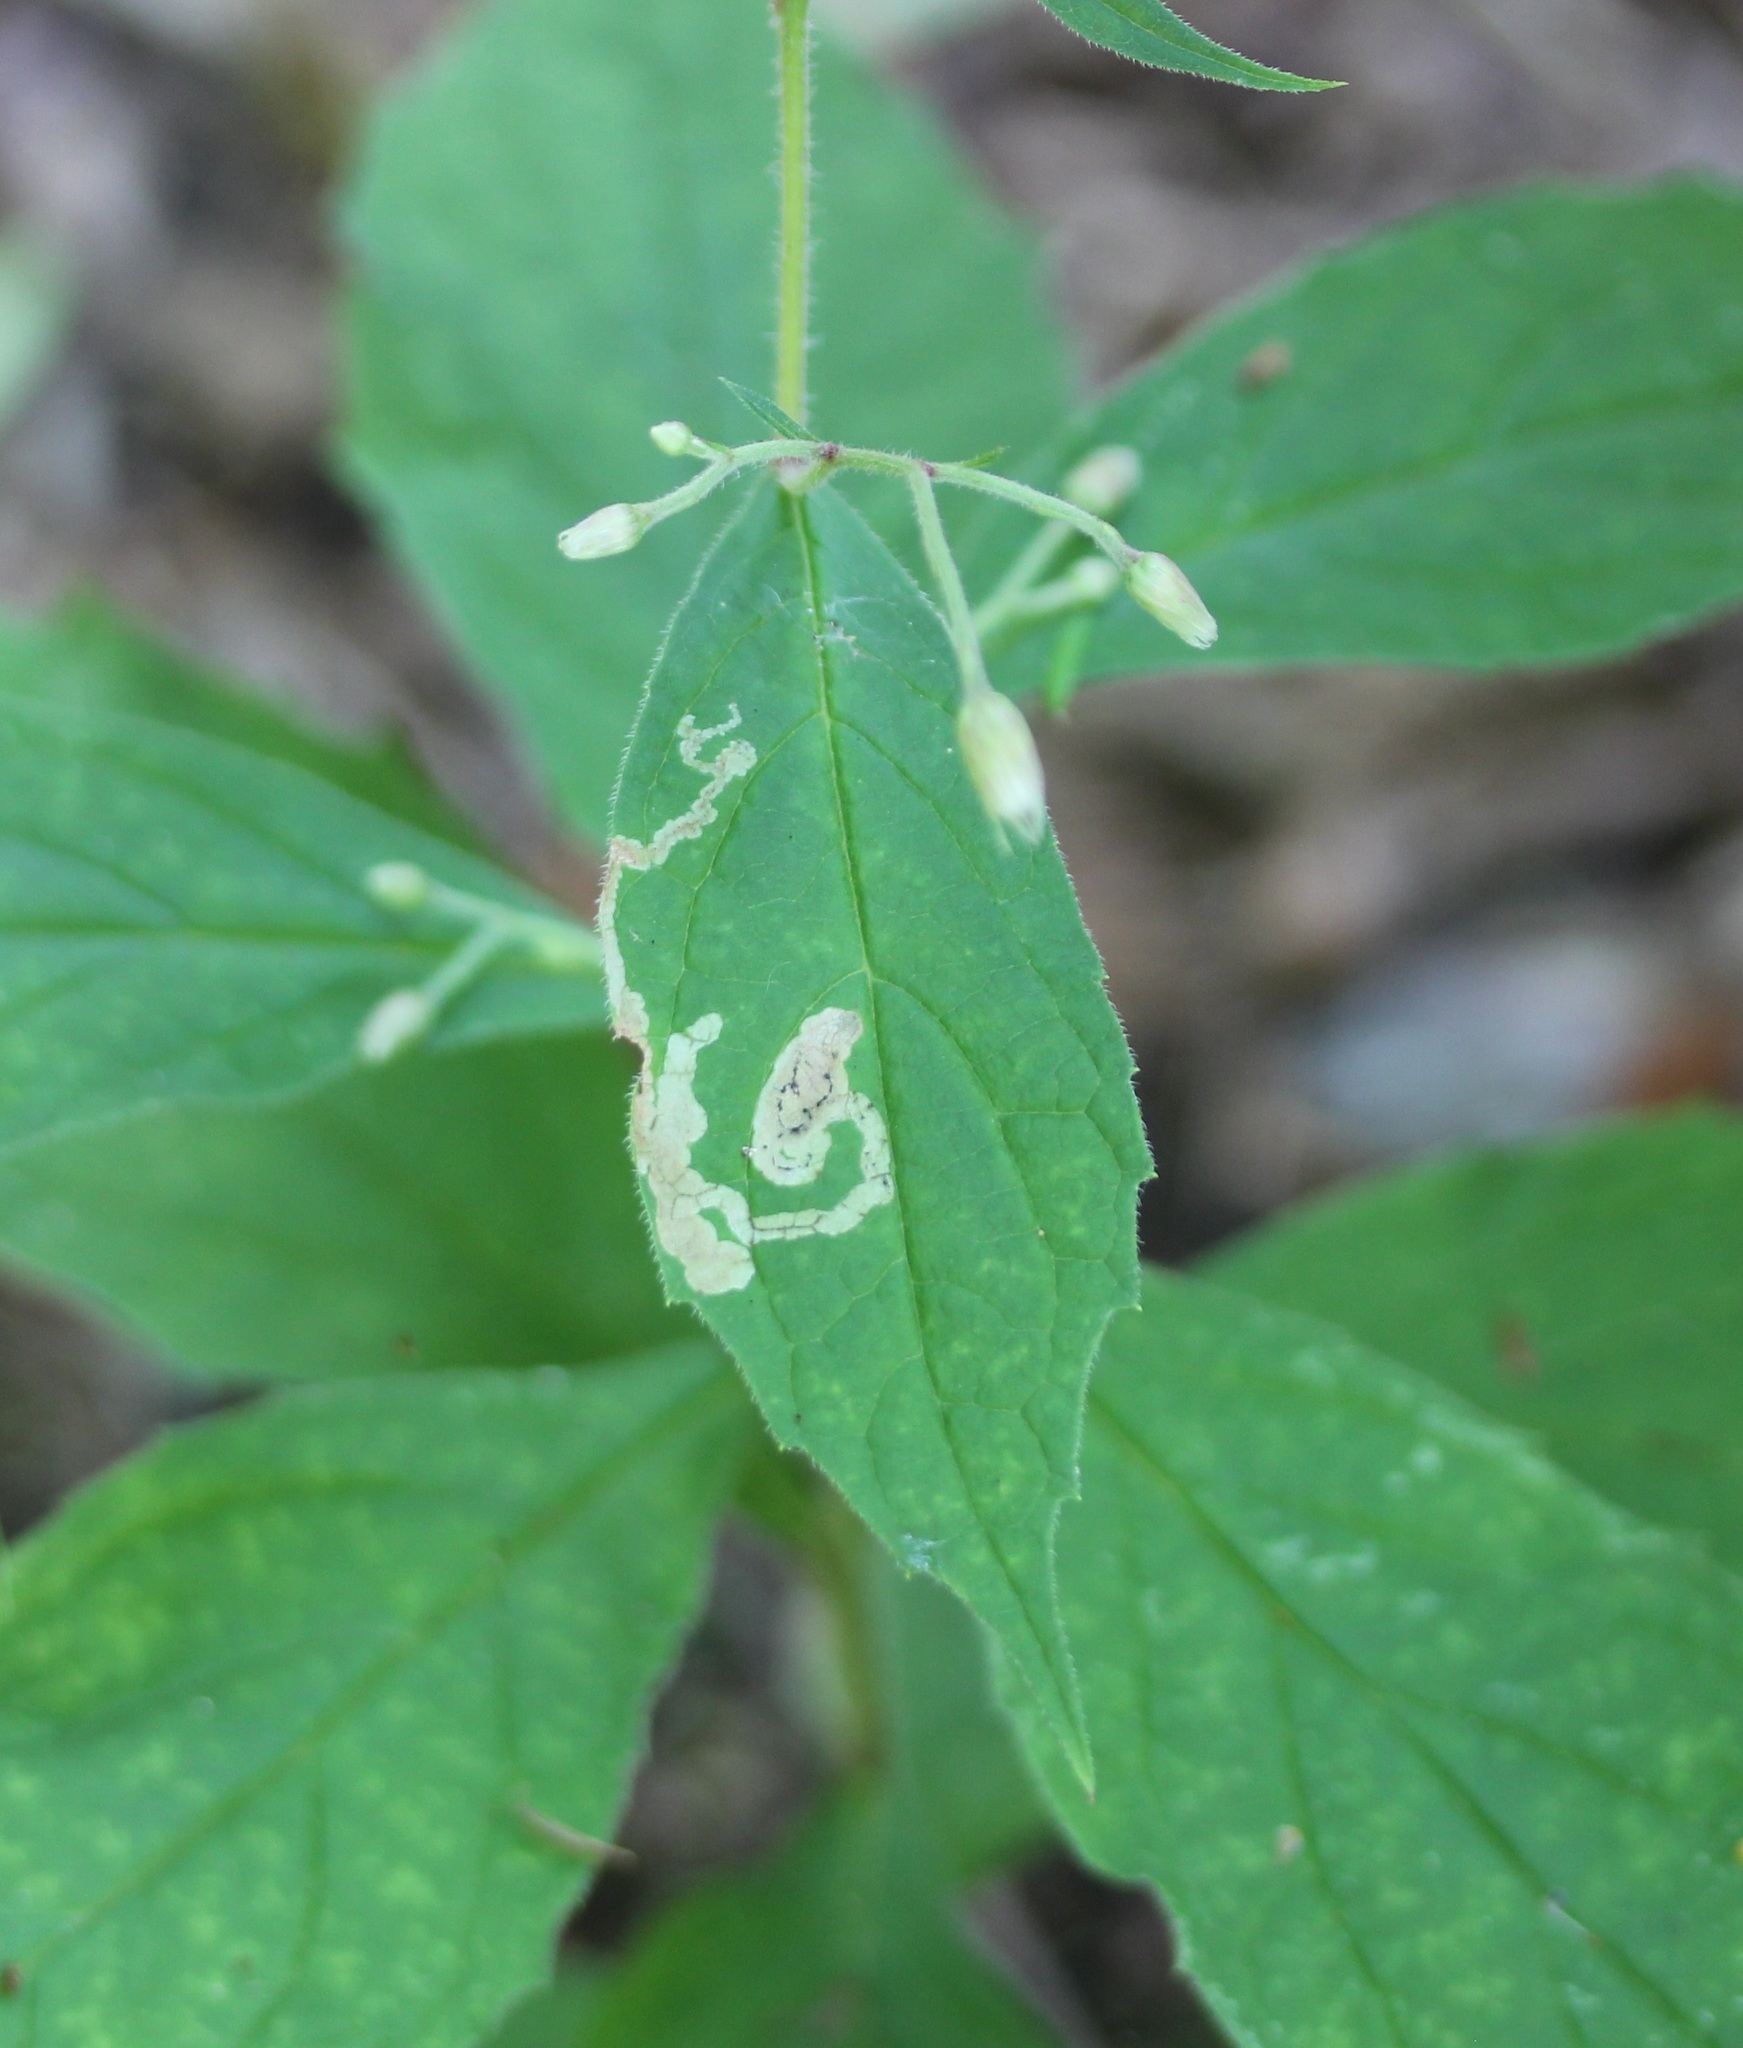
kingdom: Animalia
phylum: Arthropoda
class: Insecta
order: Diptera
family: Agromyzidae
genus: Liriomyza
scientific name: Liriomyza limopsis
